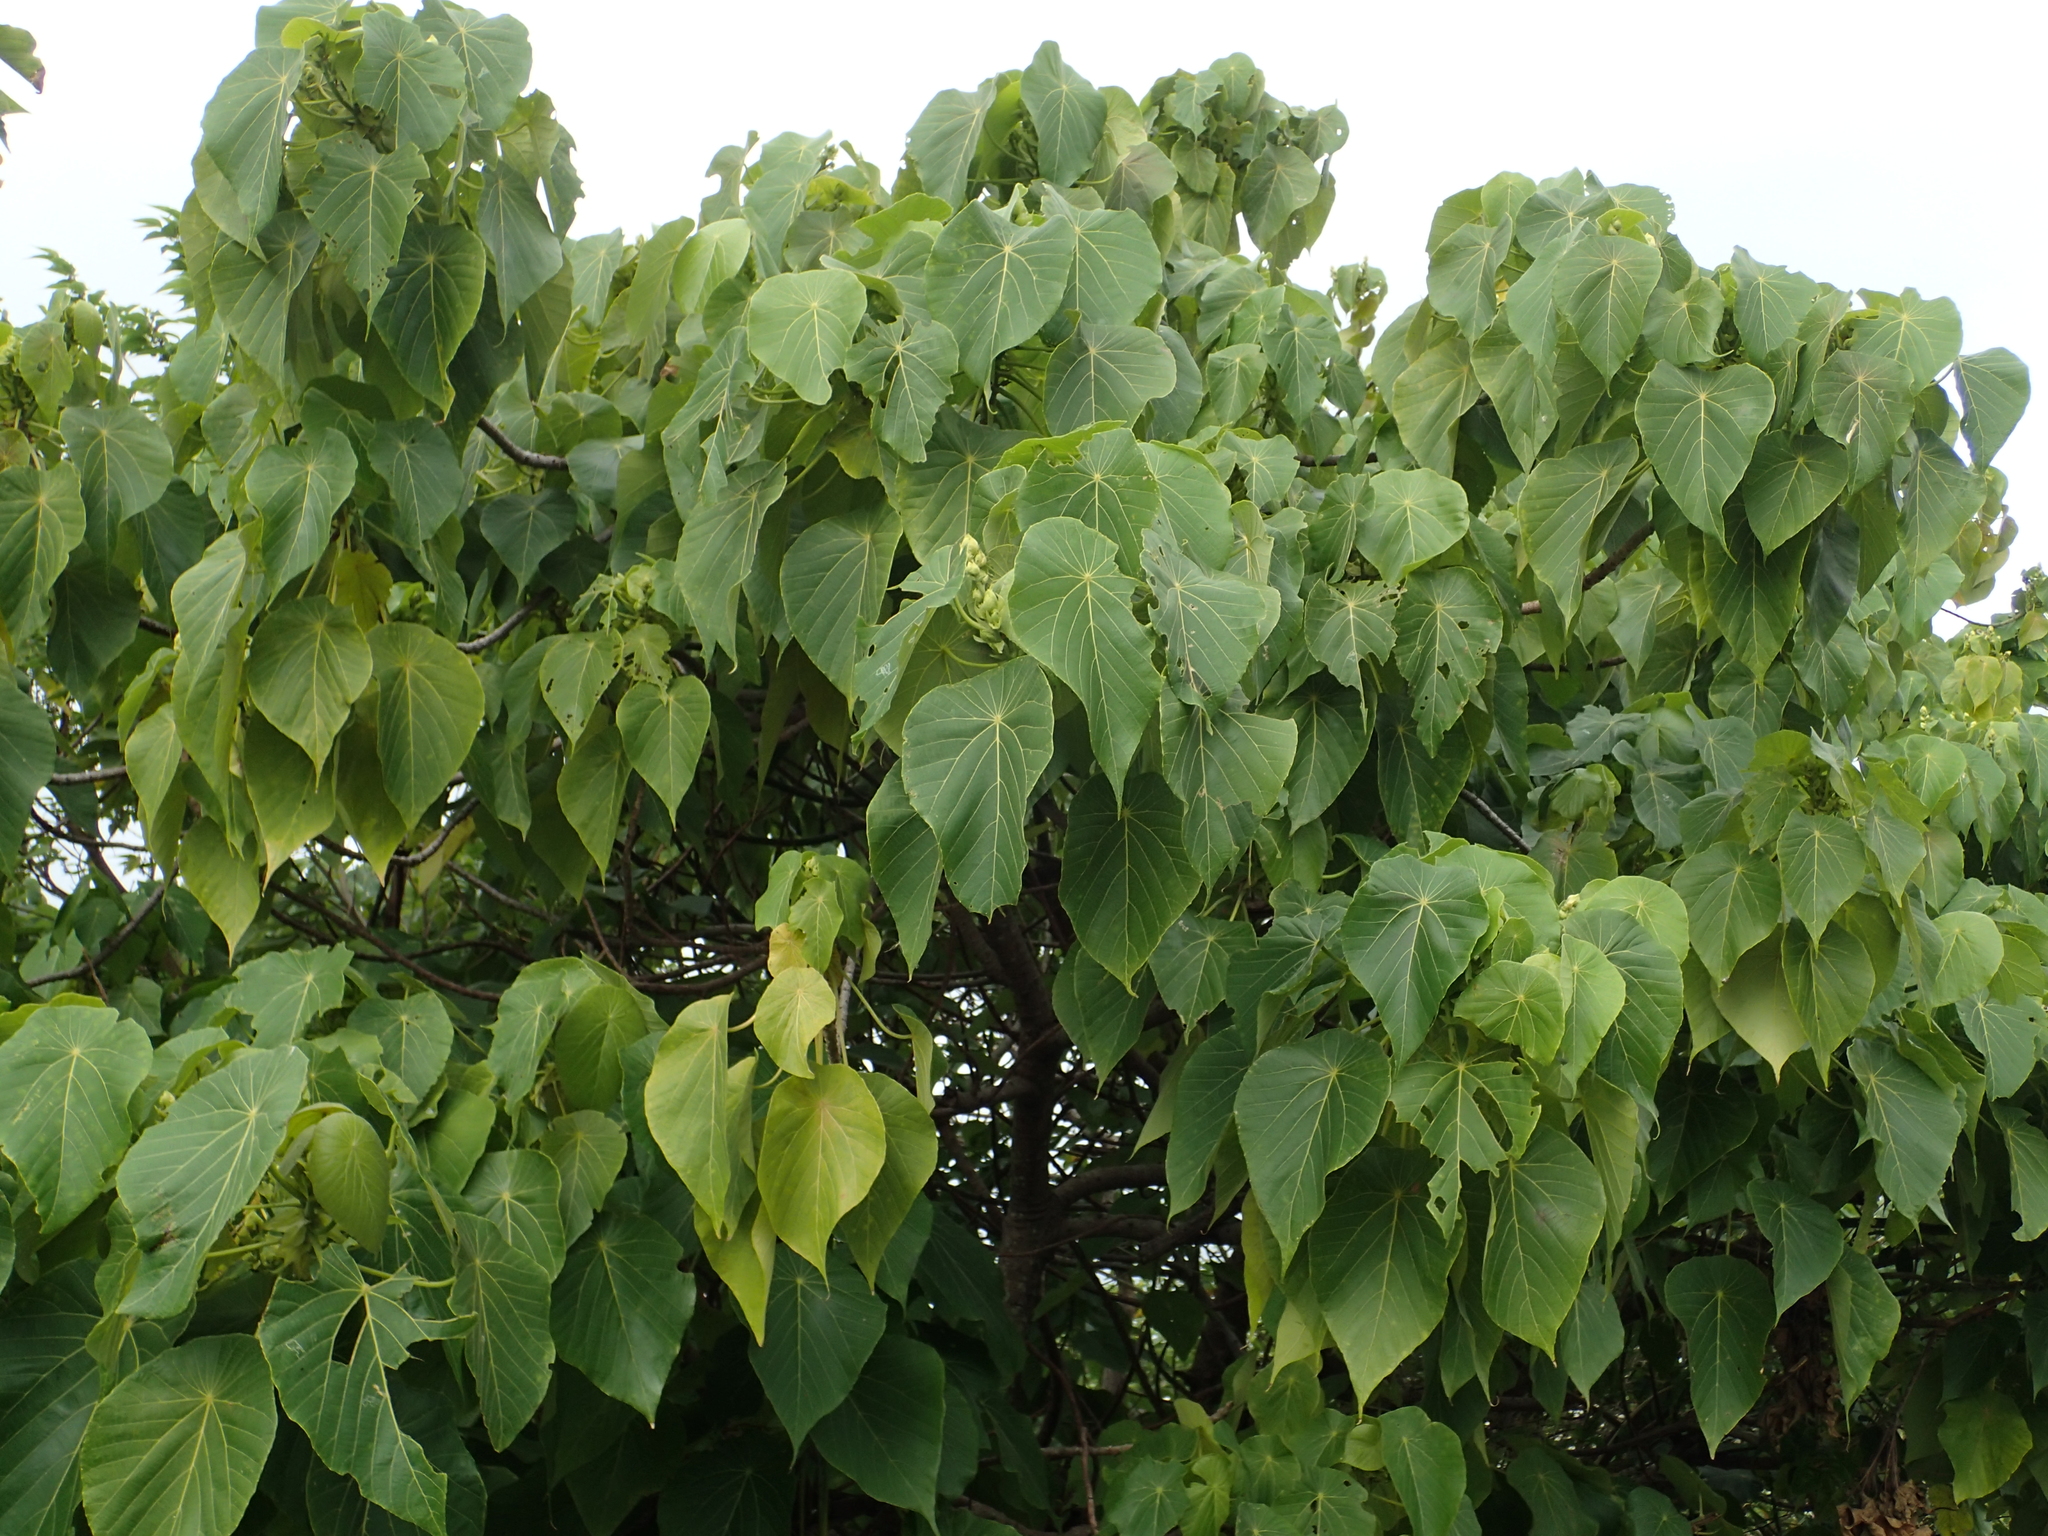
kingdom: Plantae
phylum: Tracheophyta
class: Magnoliopsida
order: Malpighiales
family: Euphorbiaceae
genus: Macaranga
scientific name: Macaranga tanarius
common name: Parasol leaf tree
